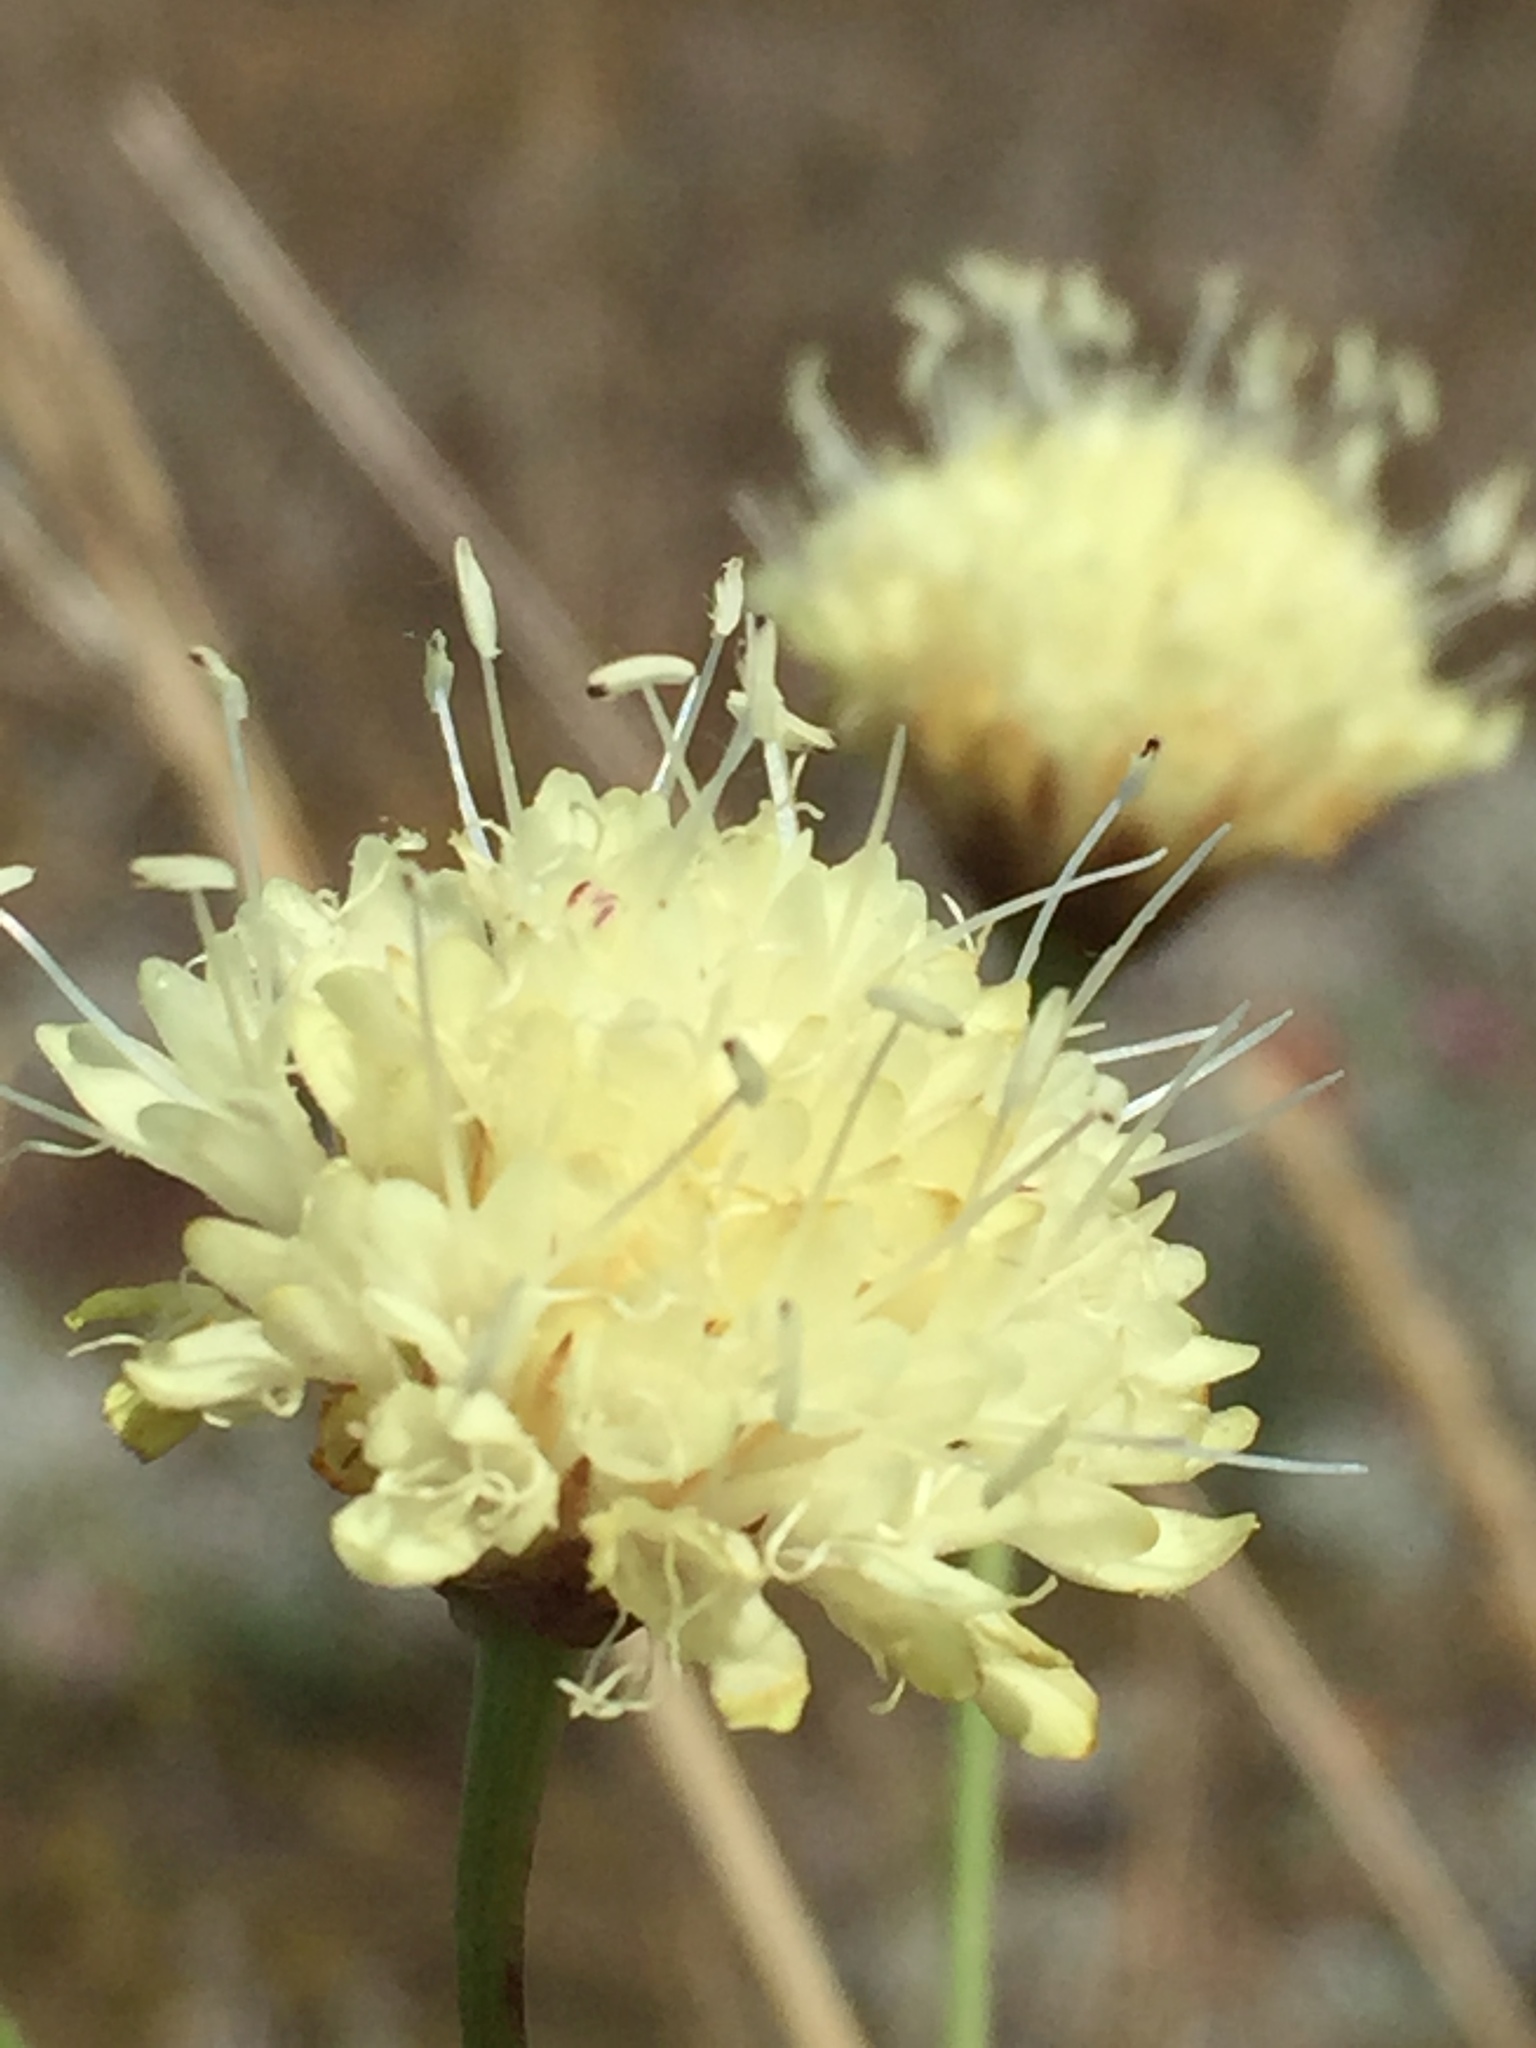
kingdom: Plantae
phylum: Tracheophyta
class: Magnoliopsida
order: Dipsacales
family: Caprifoliaceae
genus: Cephalaria
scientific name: Cephalaria uralensis
